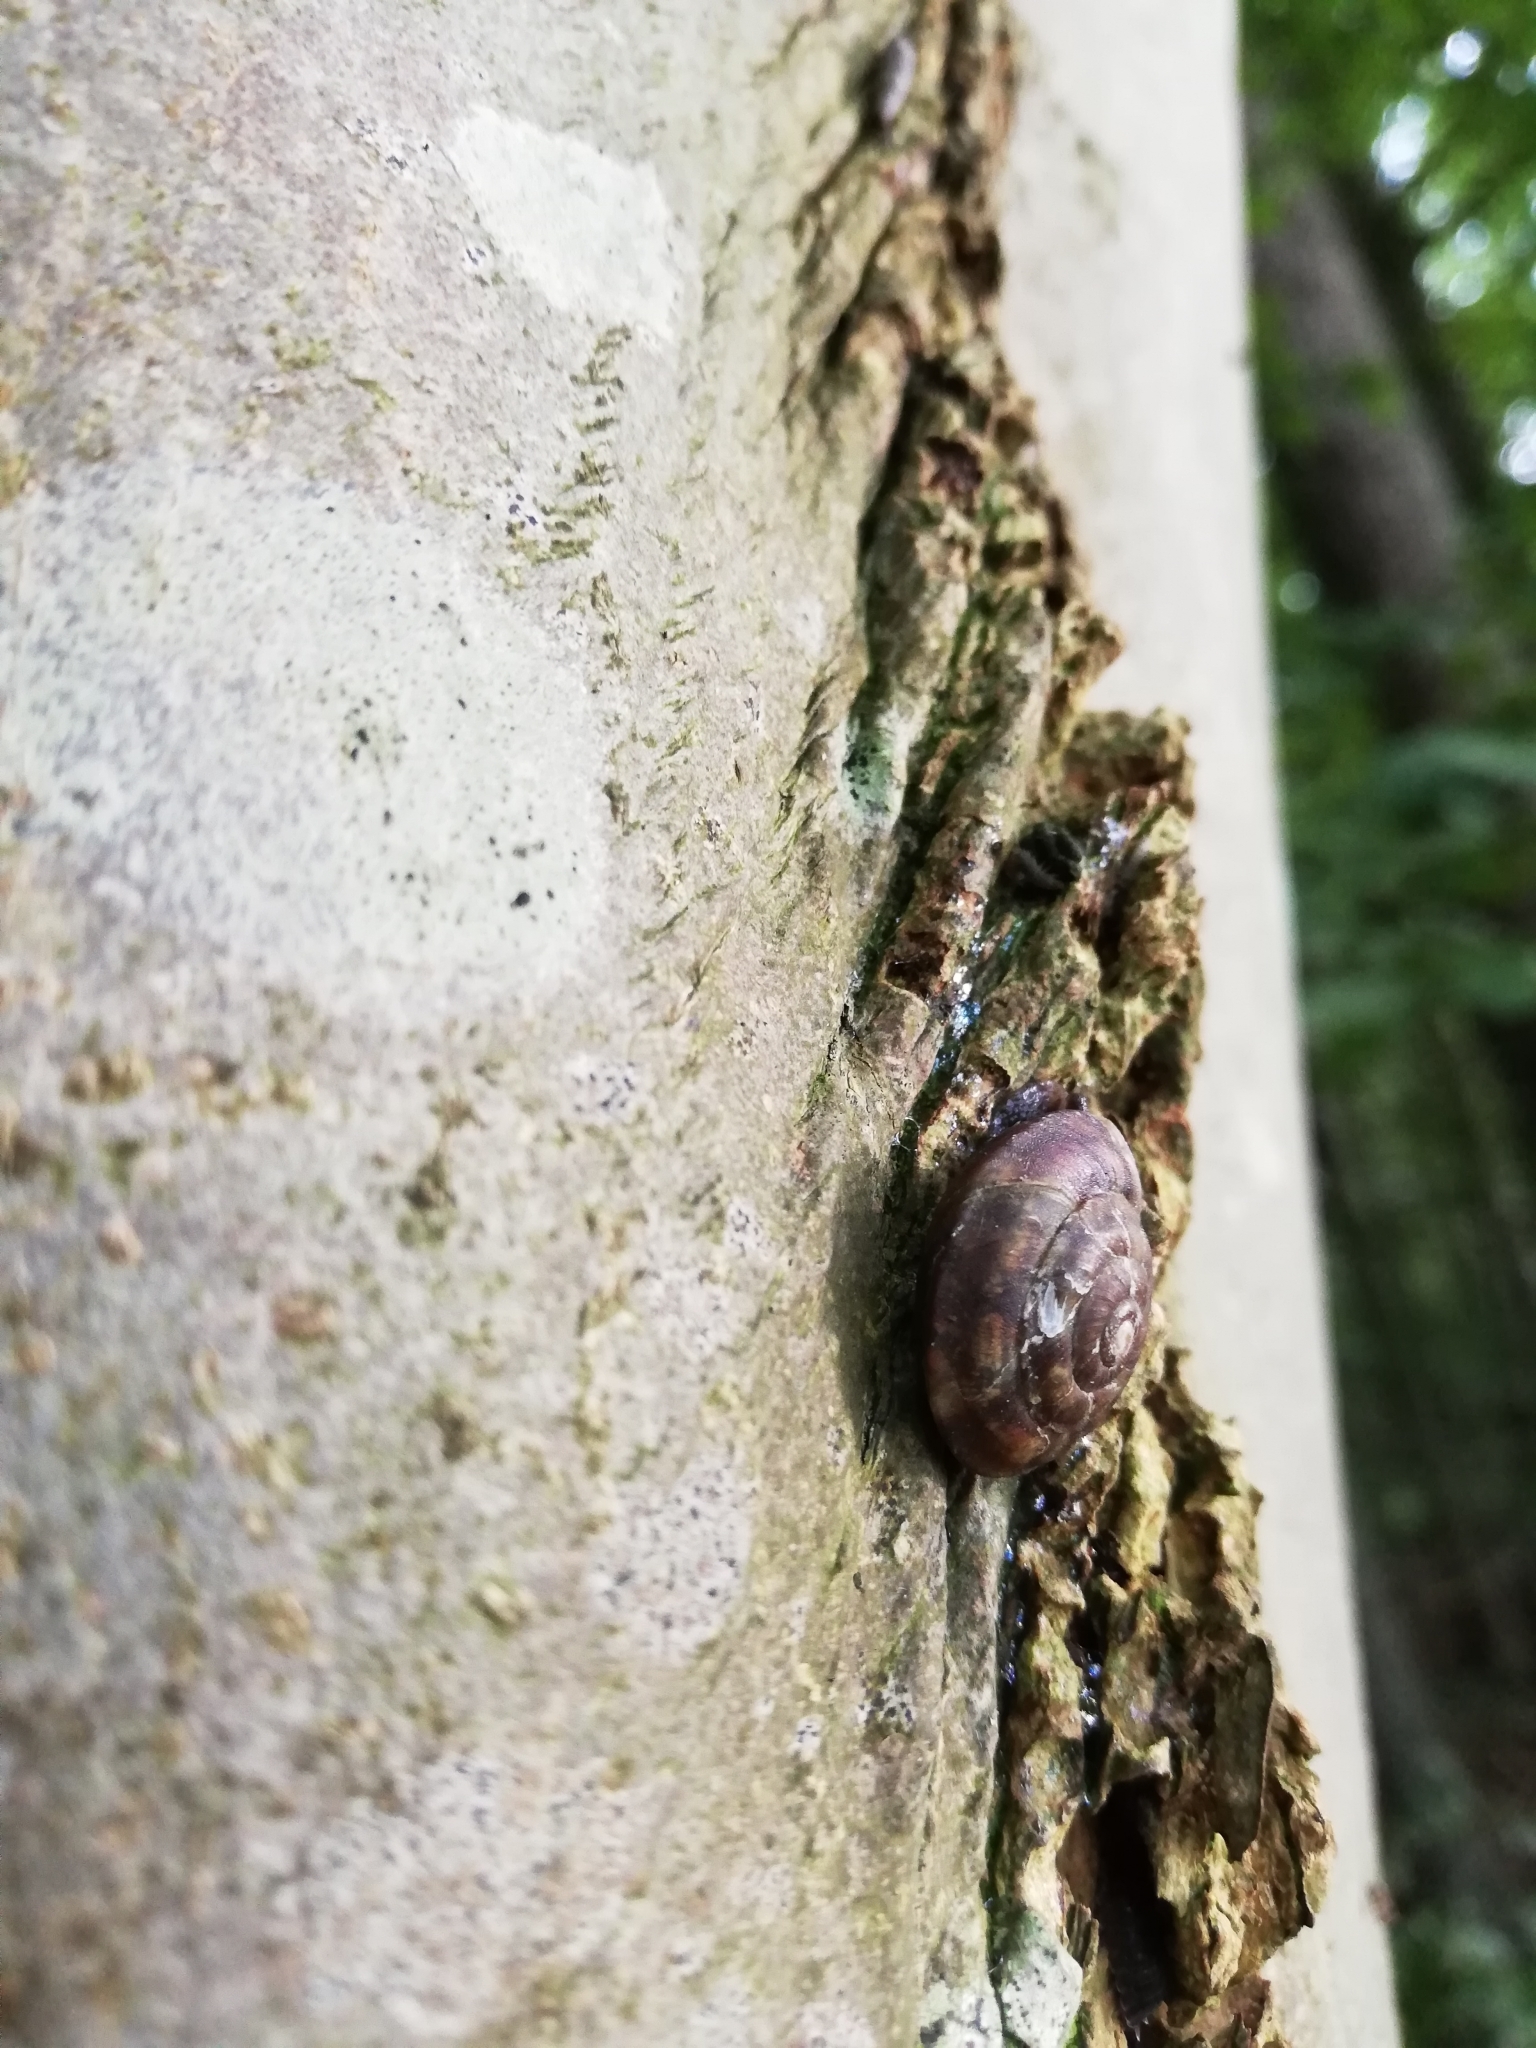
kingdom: Animalia
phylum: Mollusca
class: Gastropoda
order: Stylommatophora
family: Helicidae
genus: Helicigona
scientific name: Helicigona lapicida
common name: Lapidary snail
